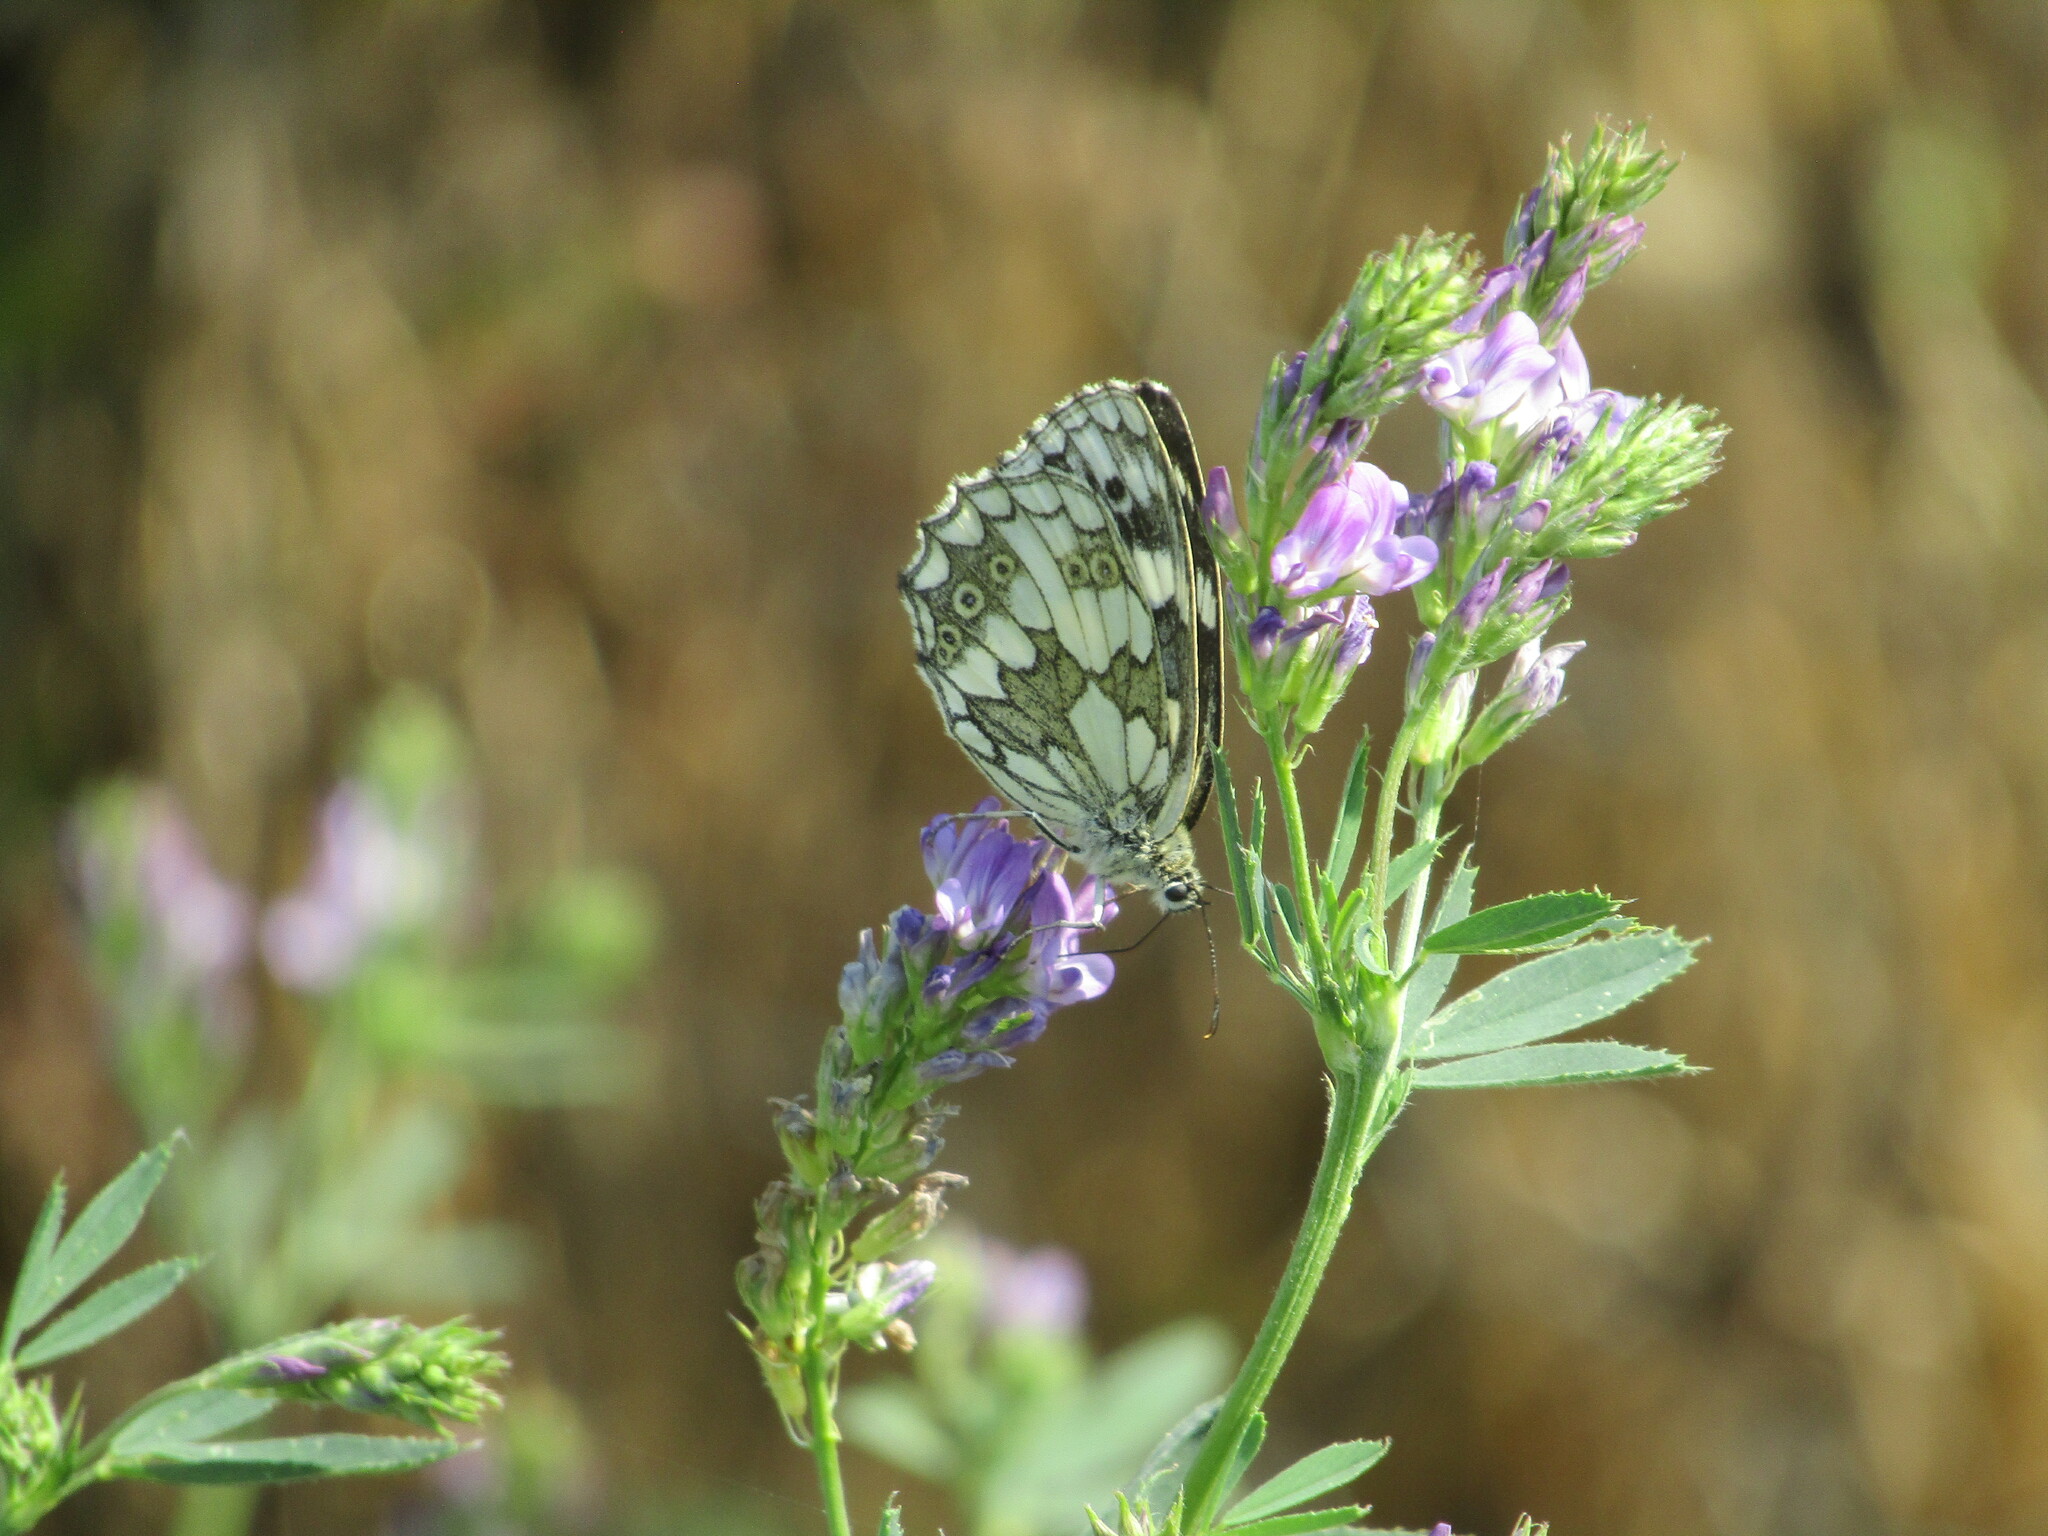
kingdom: Animalia
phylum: Arthropoda
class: Insecta
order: Lepidoptera
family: Nymphalidae
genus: Melanargia
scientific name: Melanargia galathea
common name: Marbled white
